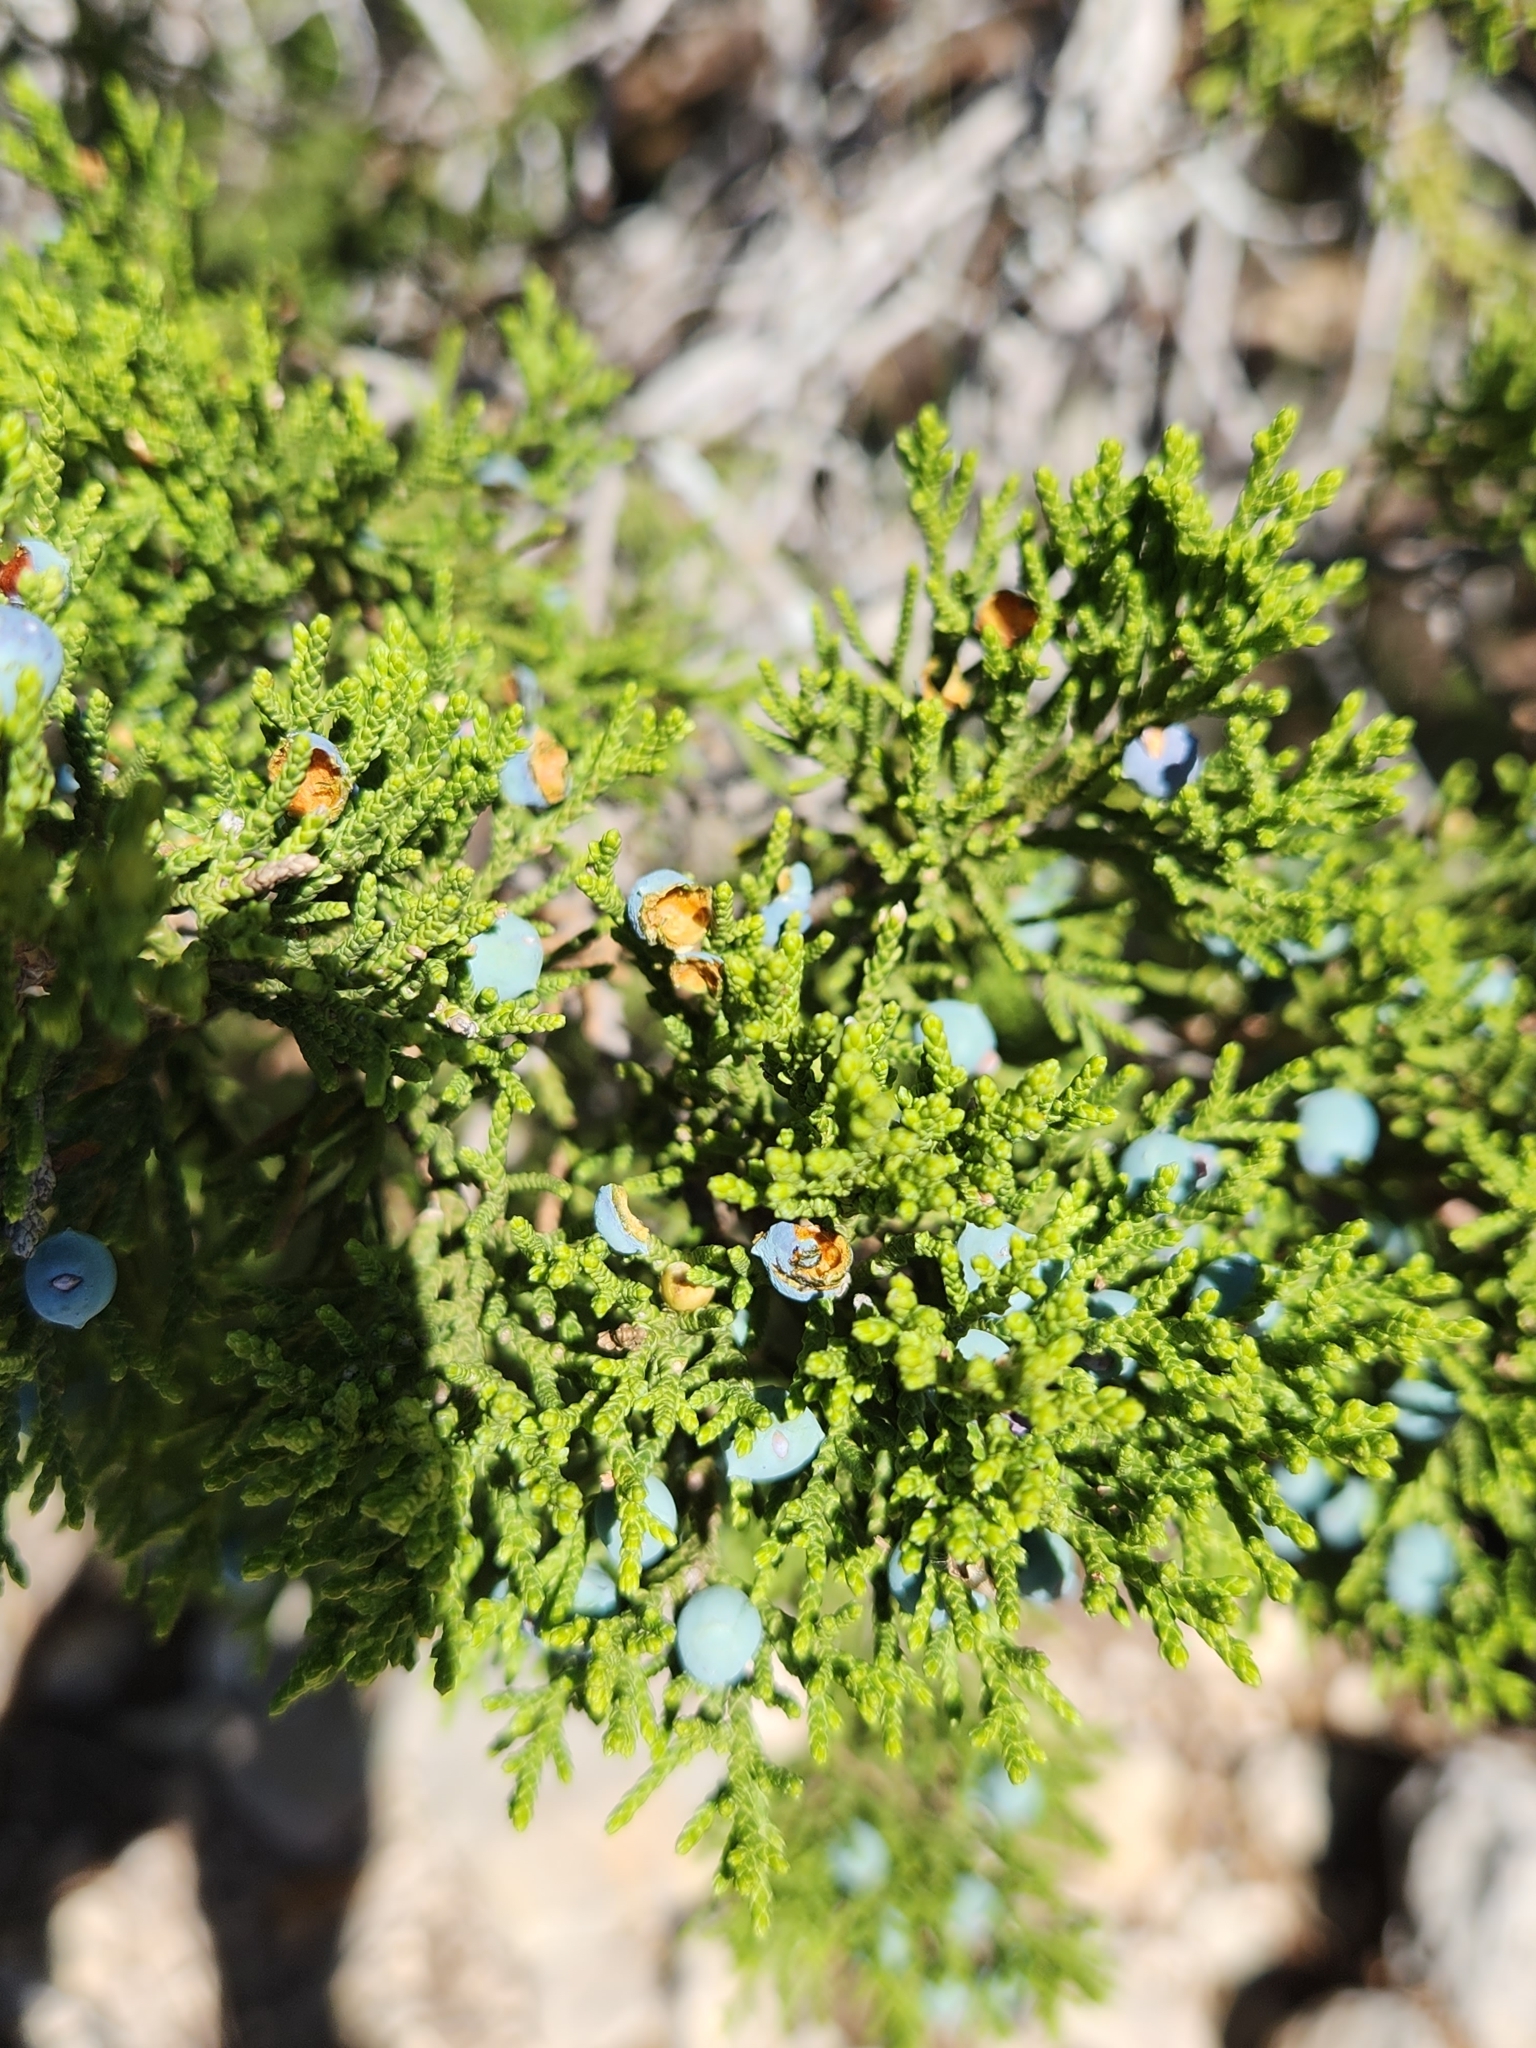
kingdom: Plantae
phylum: Tracheophyta
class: Pinopsida
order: Pinales
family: Cupressaceae
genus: Juniperus
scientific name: Juniperus ashei
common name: Mexican juniper
